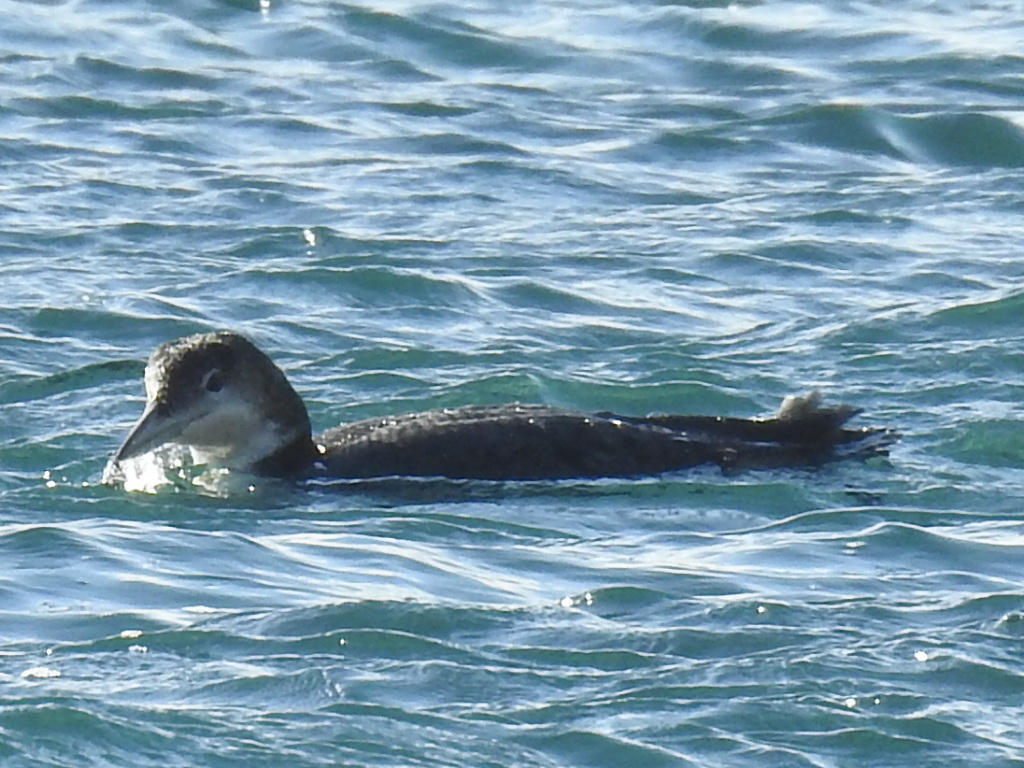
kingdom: Animalia
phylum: Chordata
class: Aves
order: Gaviiformes
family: Gaviidae
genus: Gavia
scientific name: Gavia immer
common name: Common loon
